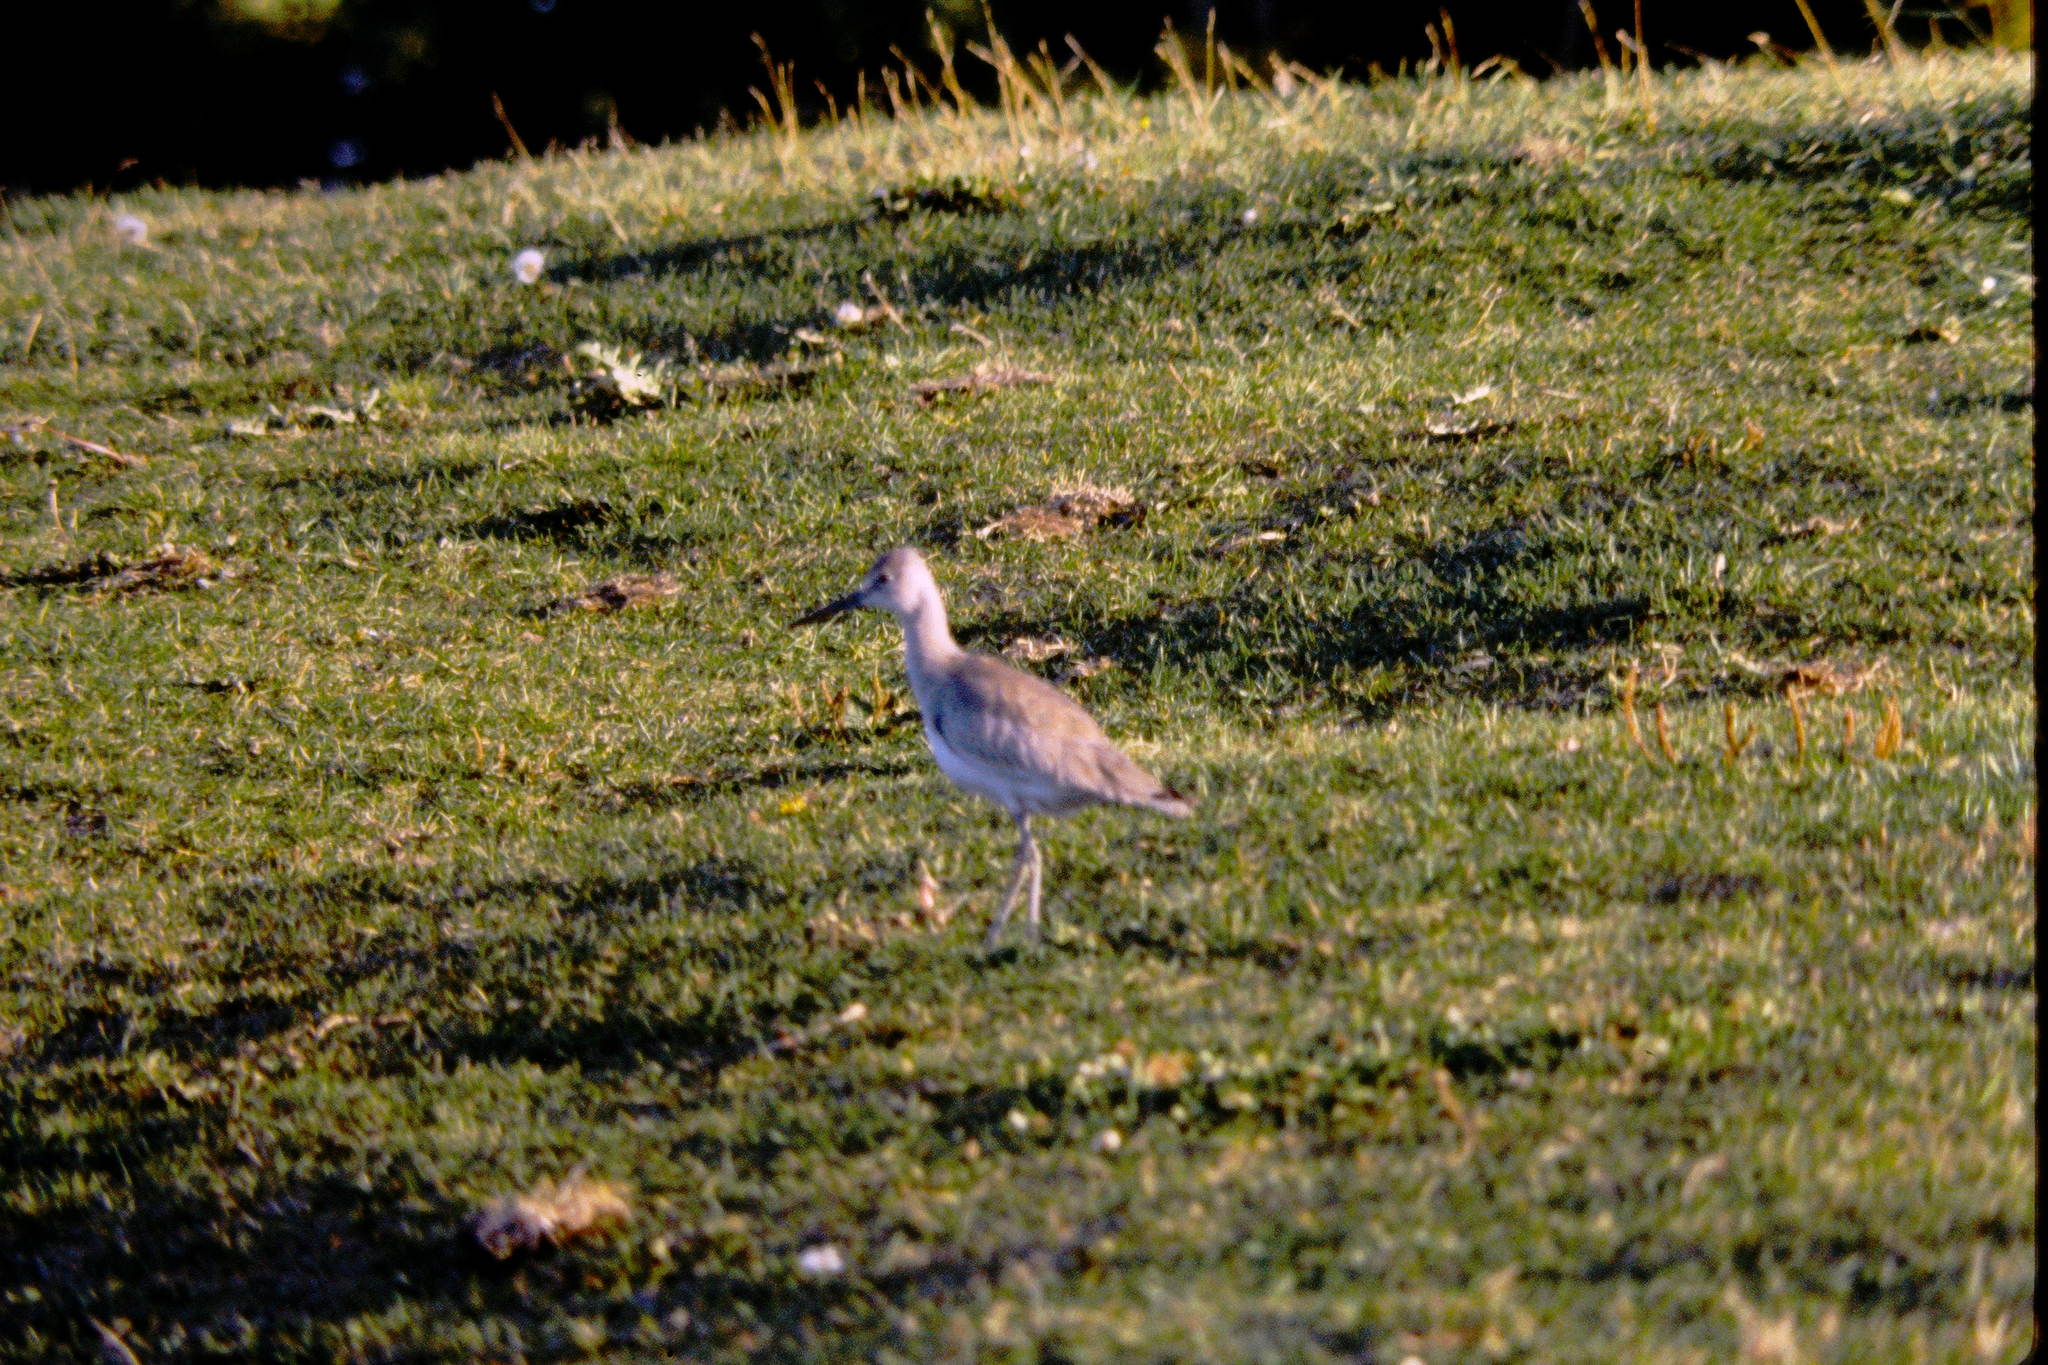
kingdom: Animalia
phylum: Chordata
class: Aves
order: Charadriiformes
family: Scolopacidae
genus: Tringa
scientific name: Tringa semipalmata
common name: Willet
